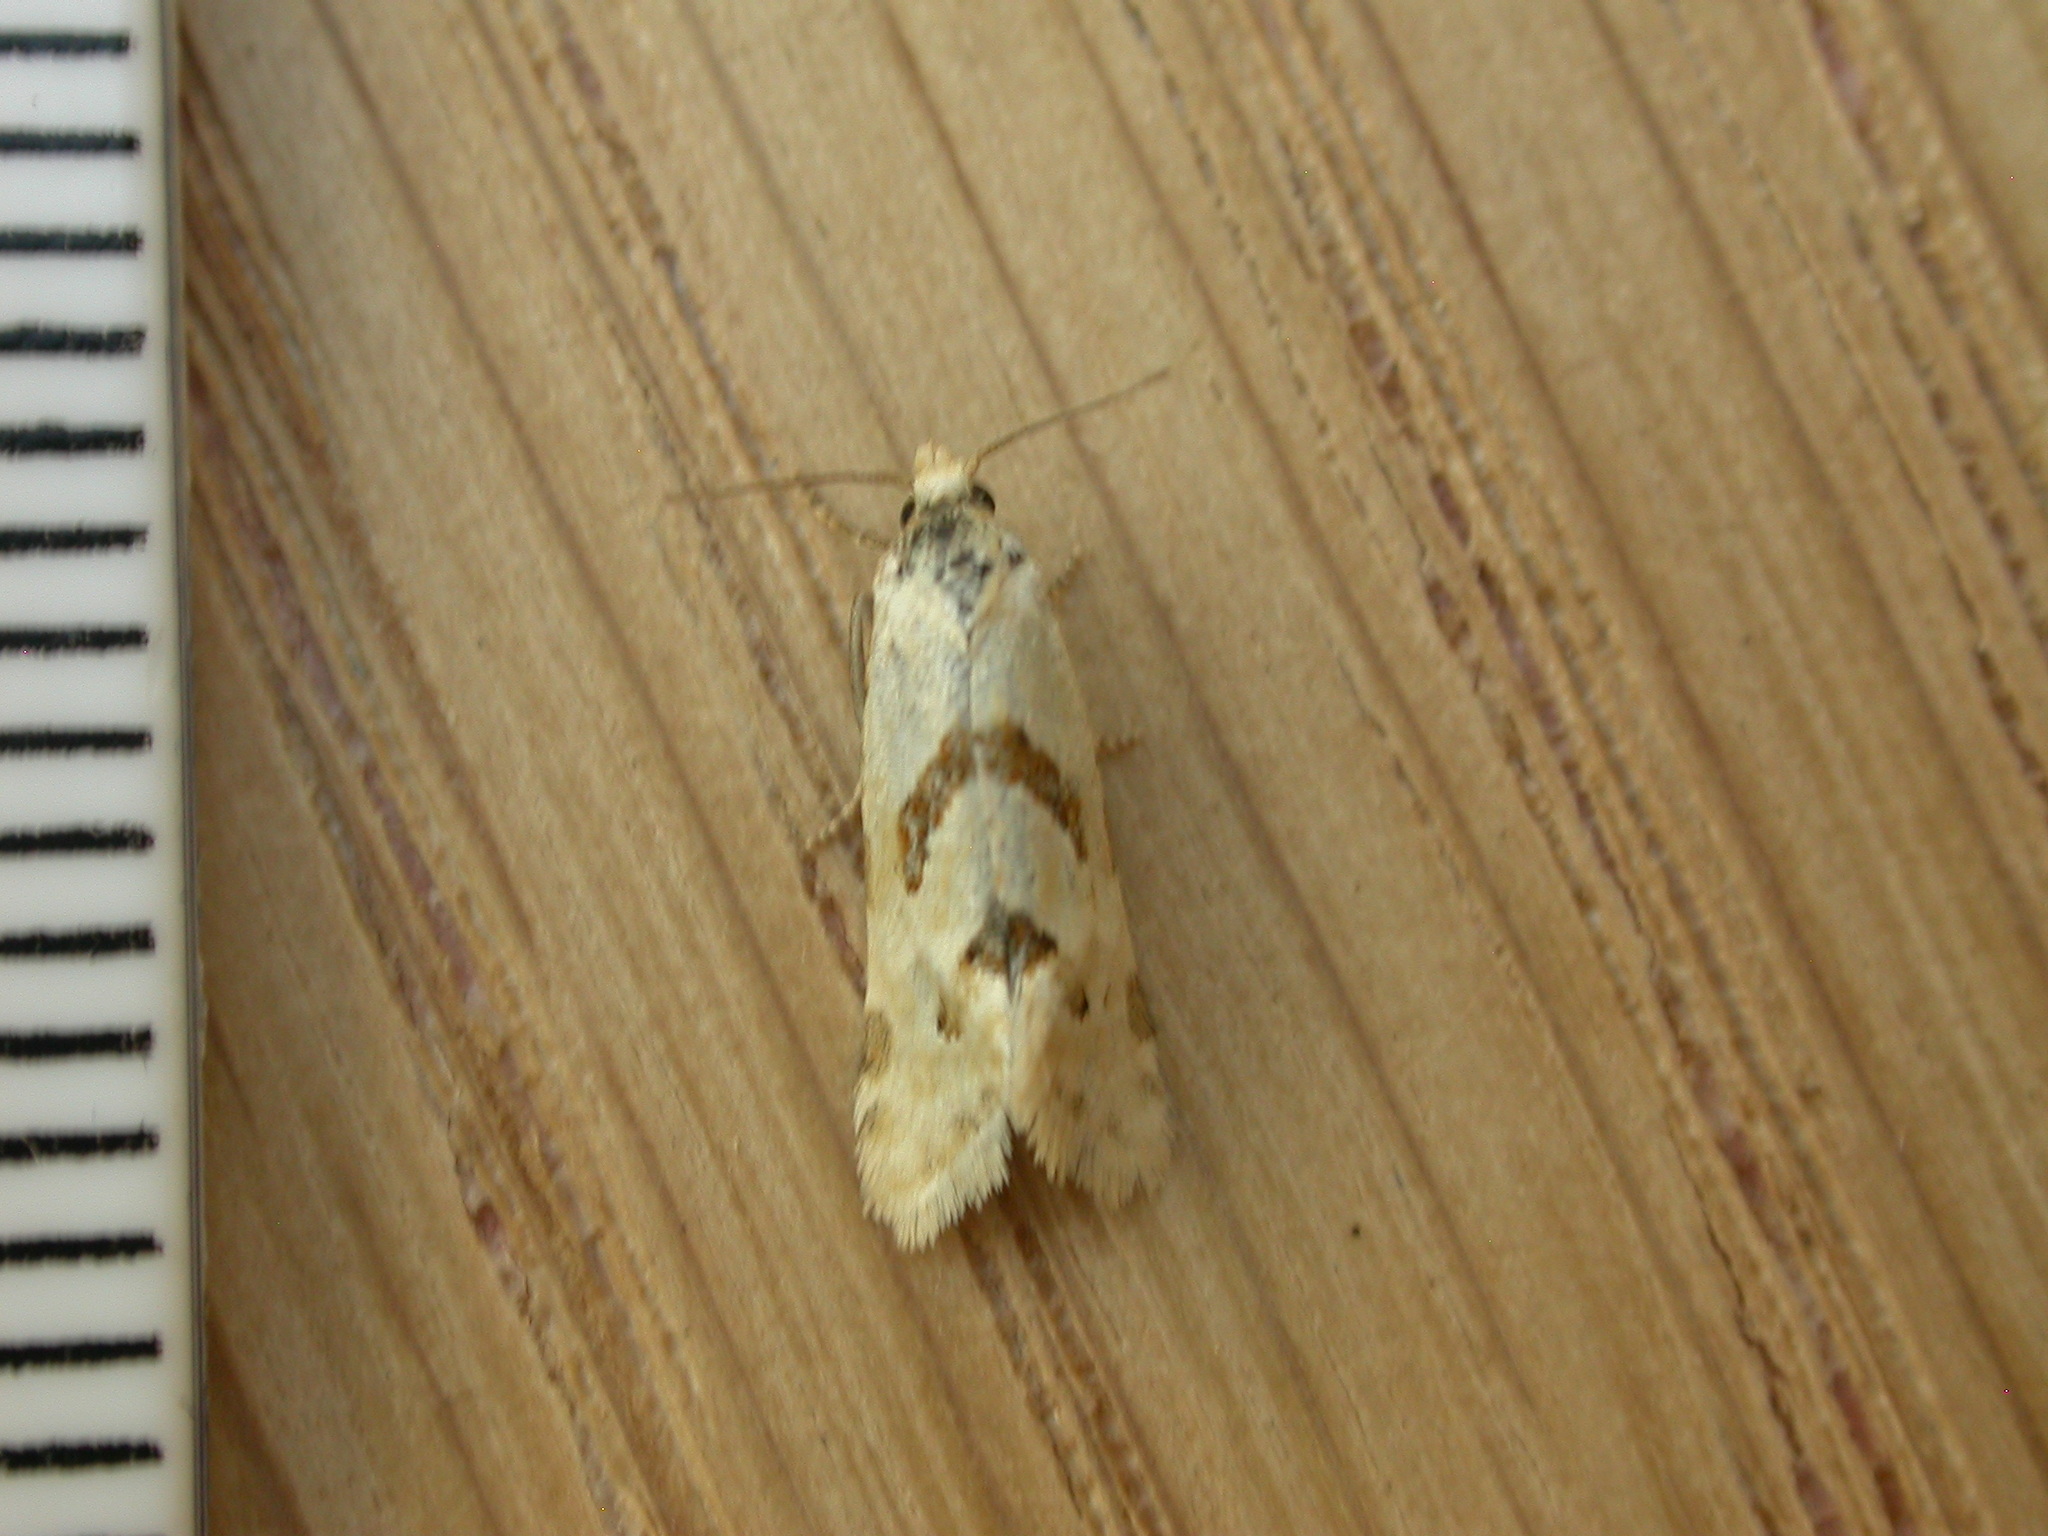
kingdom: Animalia
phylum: Arthropoda
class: Insecta
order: Lepidoptera
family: Tortricidae
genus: Aethes
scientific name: Aethes smeathmanniana
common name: Yarrow conch
